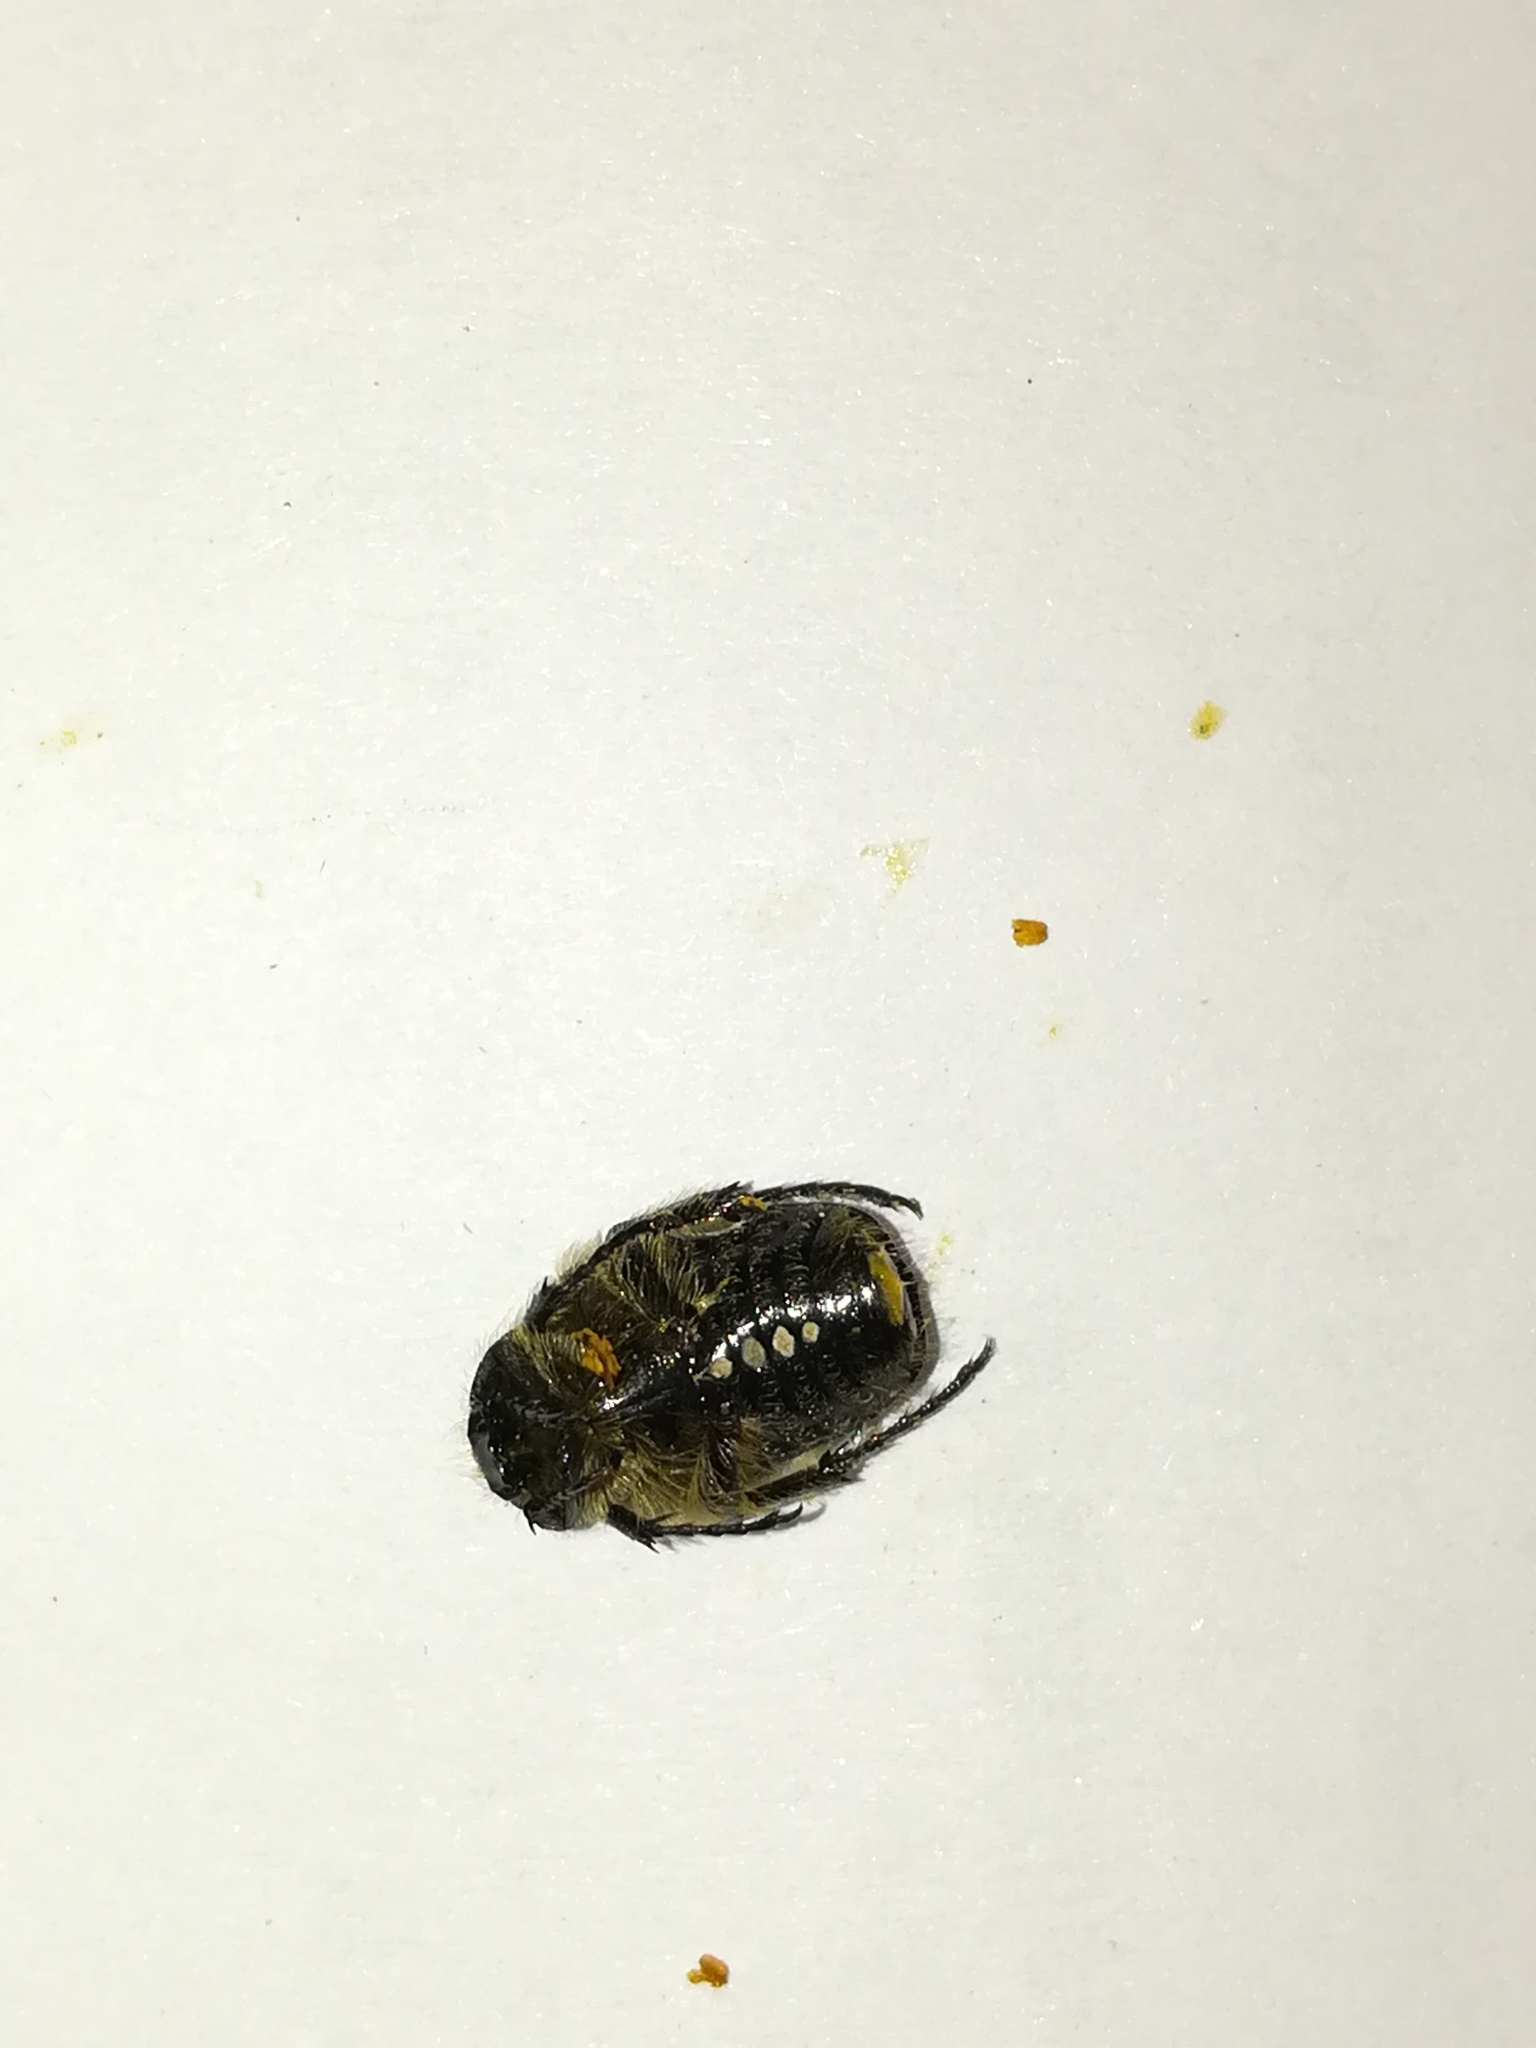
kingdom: Animalia
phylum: Arthropoda
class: Insecta
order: Coleoptera
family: Scarabaeidae
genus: Oxythyrea
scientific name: Oxythyrea funesta
